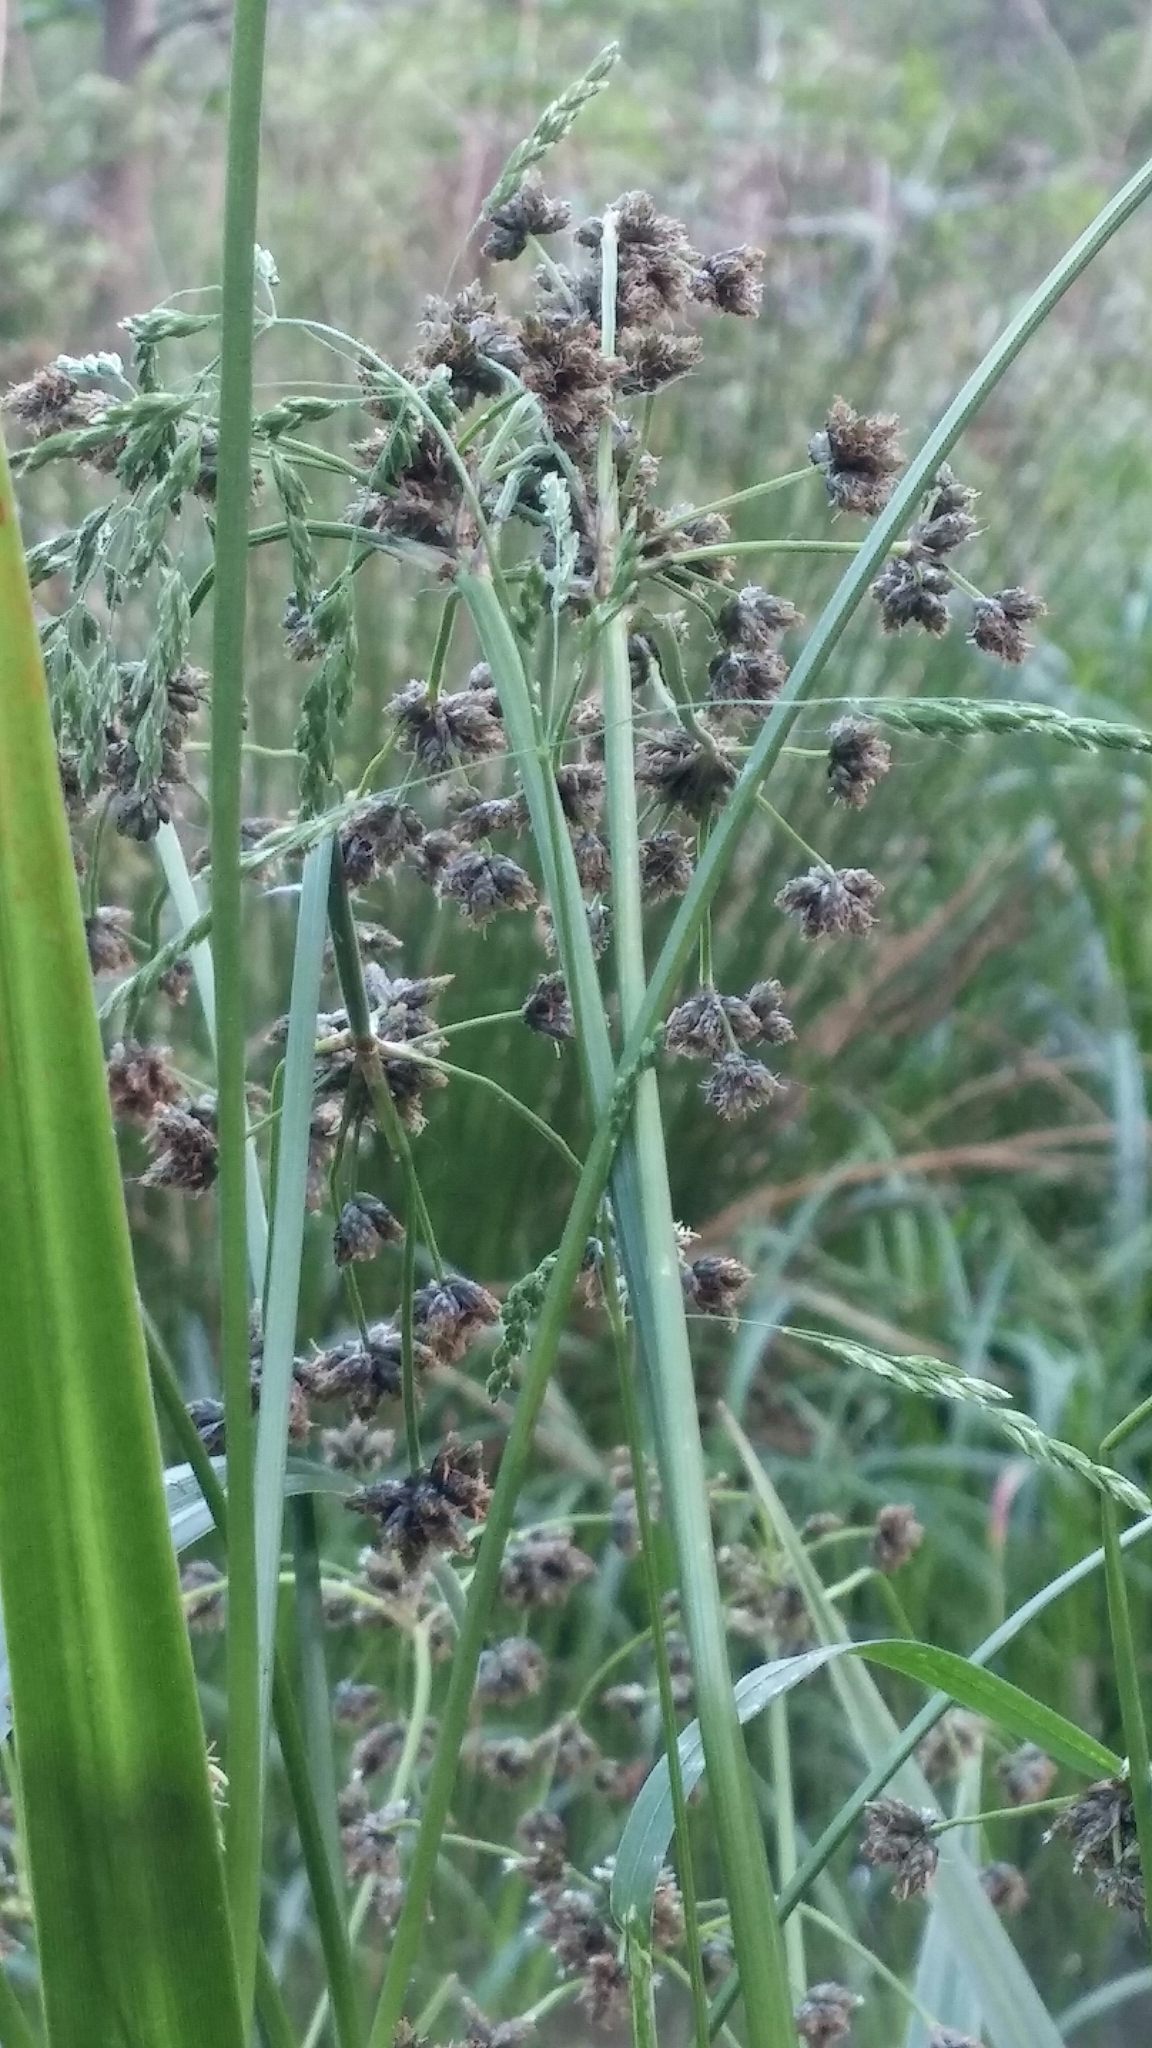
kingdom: Plantae
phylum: Tracheophyta
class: Liliopsida
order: Poales
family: Cyperaceae
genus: Scirpus
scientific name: Scirpus microcarpus
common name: Panicled bulrush
